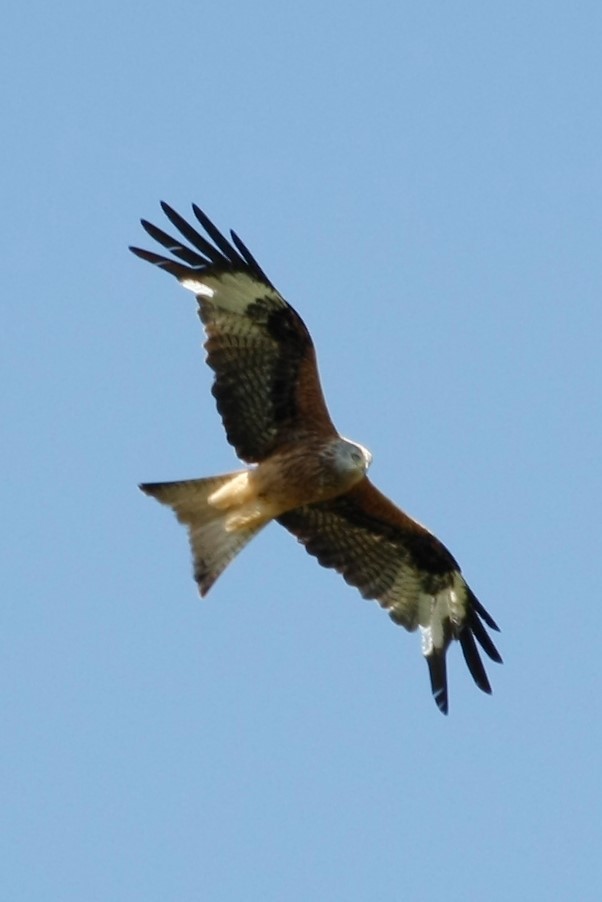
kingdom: Animalia
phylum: Chordata
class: Aves
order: Accipitriformes
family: Accipitridae
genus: Milvus
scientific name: Milvus milvus
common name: Red kite
